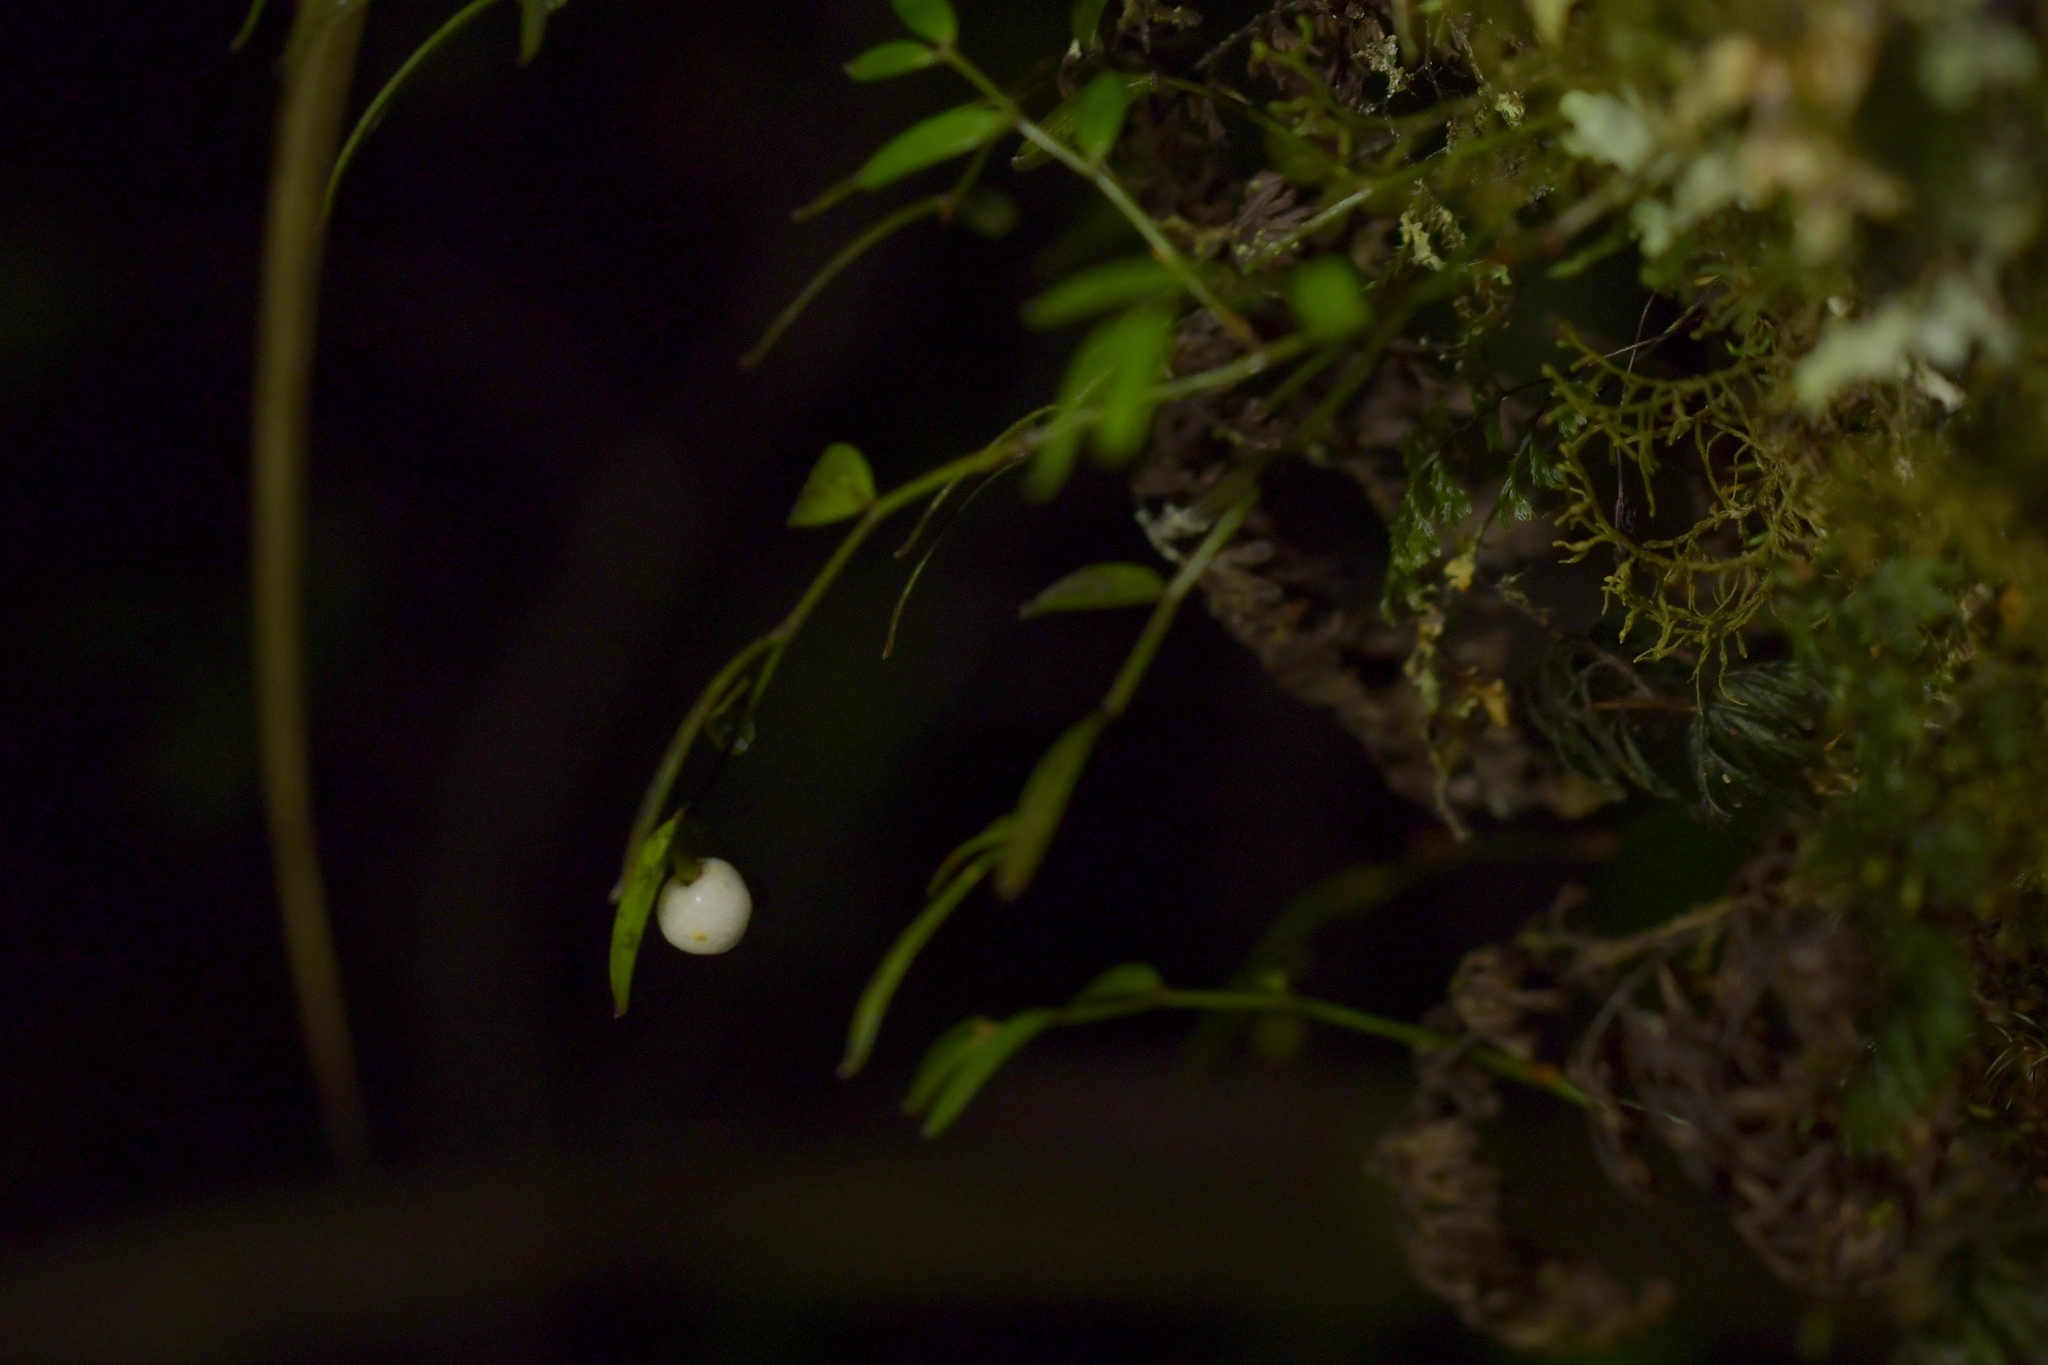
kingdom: Plantae
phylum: Tracheophyta
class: Liliopsida
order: Liliales
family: Alstroemeriaceae
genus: Luzuriaga
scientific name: Luzuriaga parviflora
